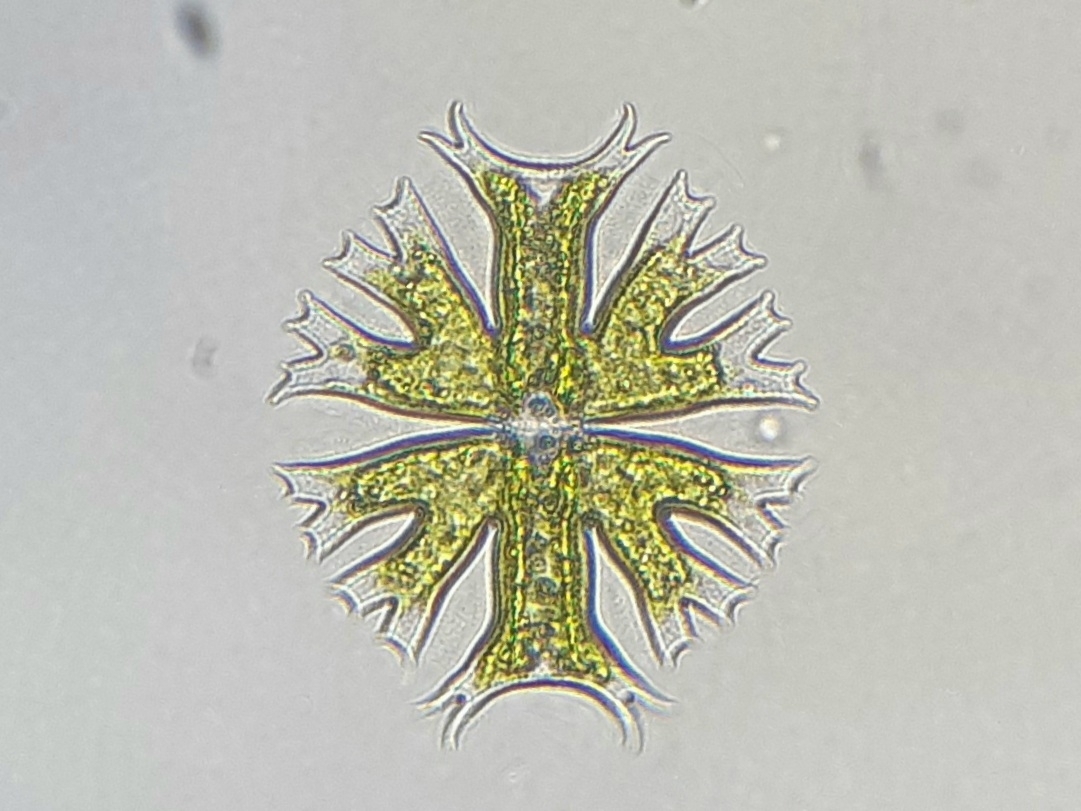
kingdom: Plantae
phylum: Charophyta
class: Conjugatophyceae
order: Desmidiales
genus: Micrasterias
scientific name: Micrasterias crux-melitensis
